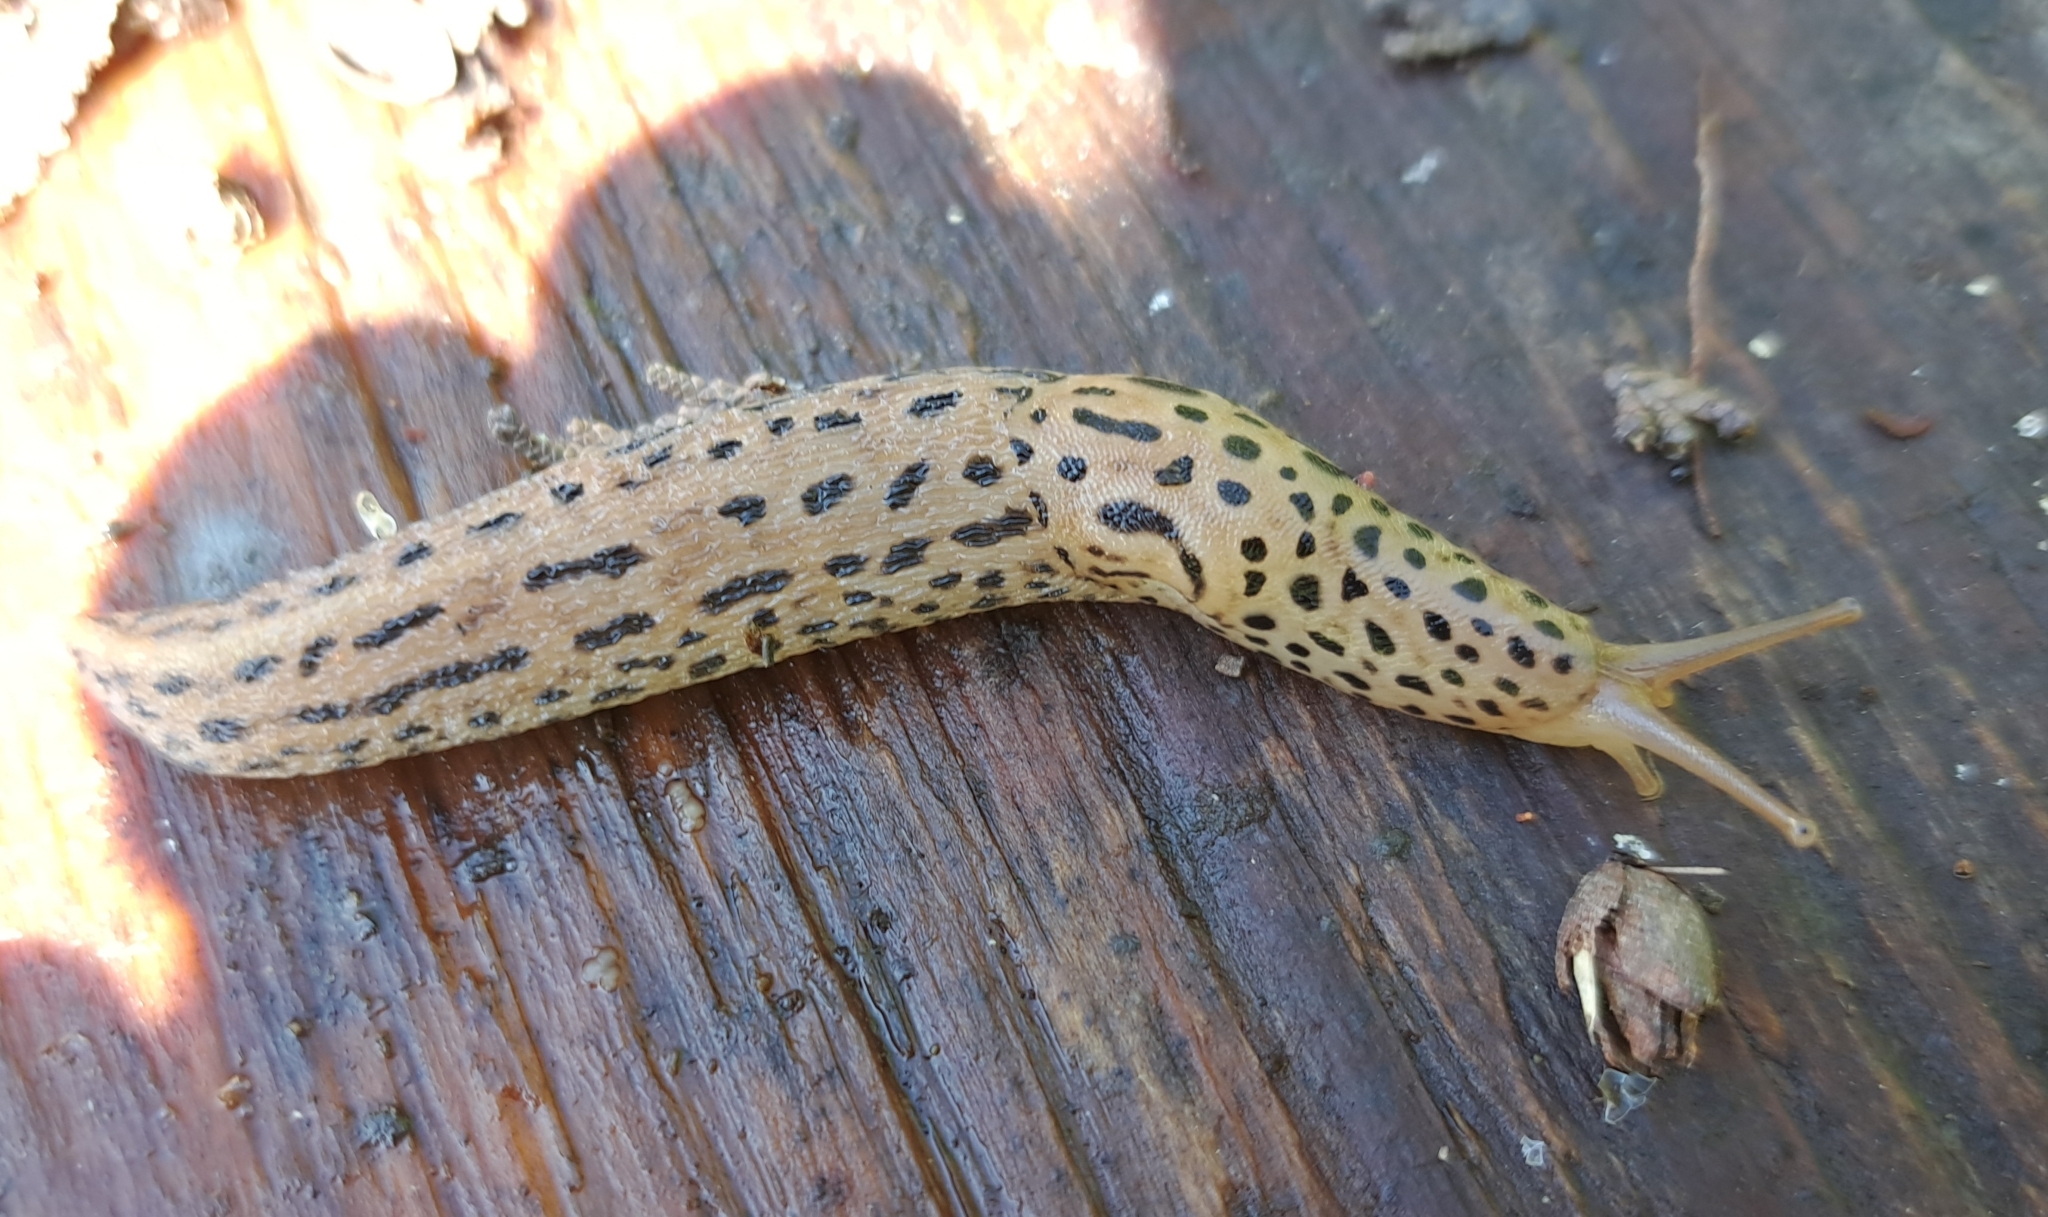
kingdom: Animalia
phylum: Mollusca
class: Gastropoda
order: Stylommatophora
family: Limacidae
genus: Limax
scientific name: Limax maximus
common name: Great grey slug
